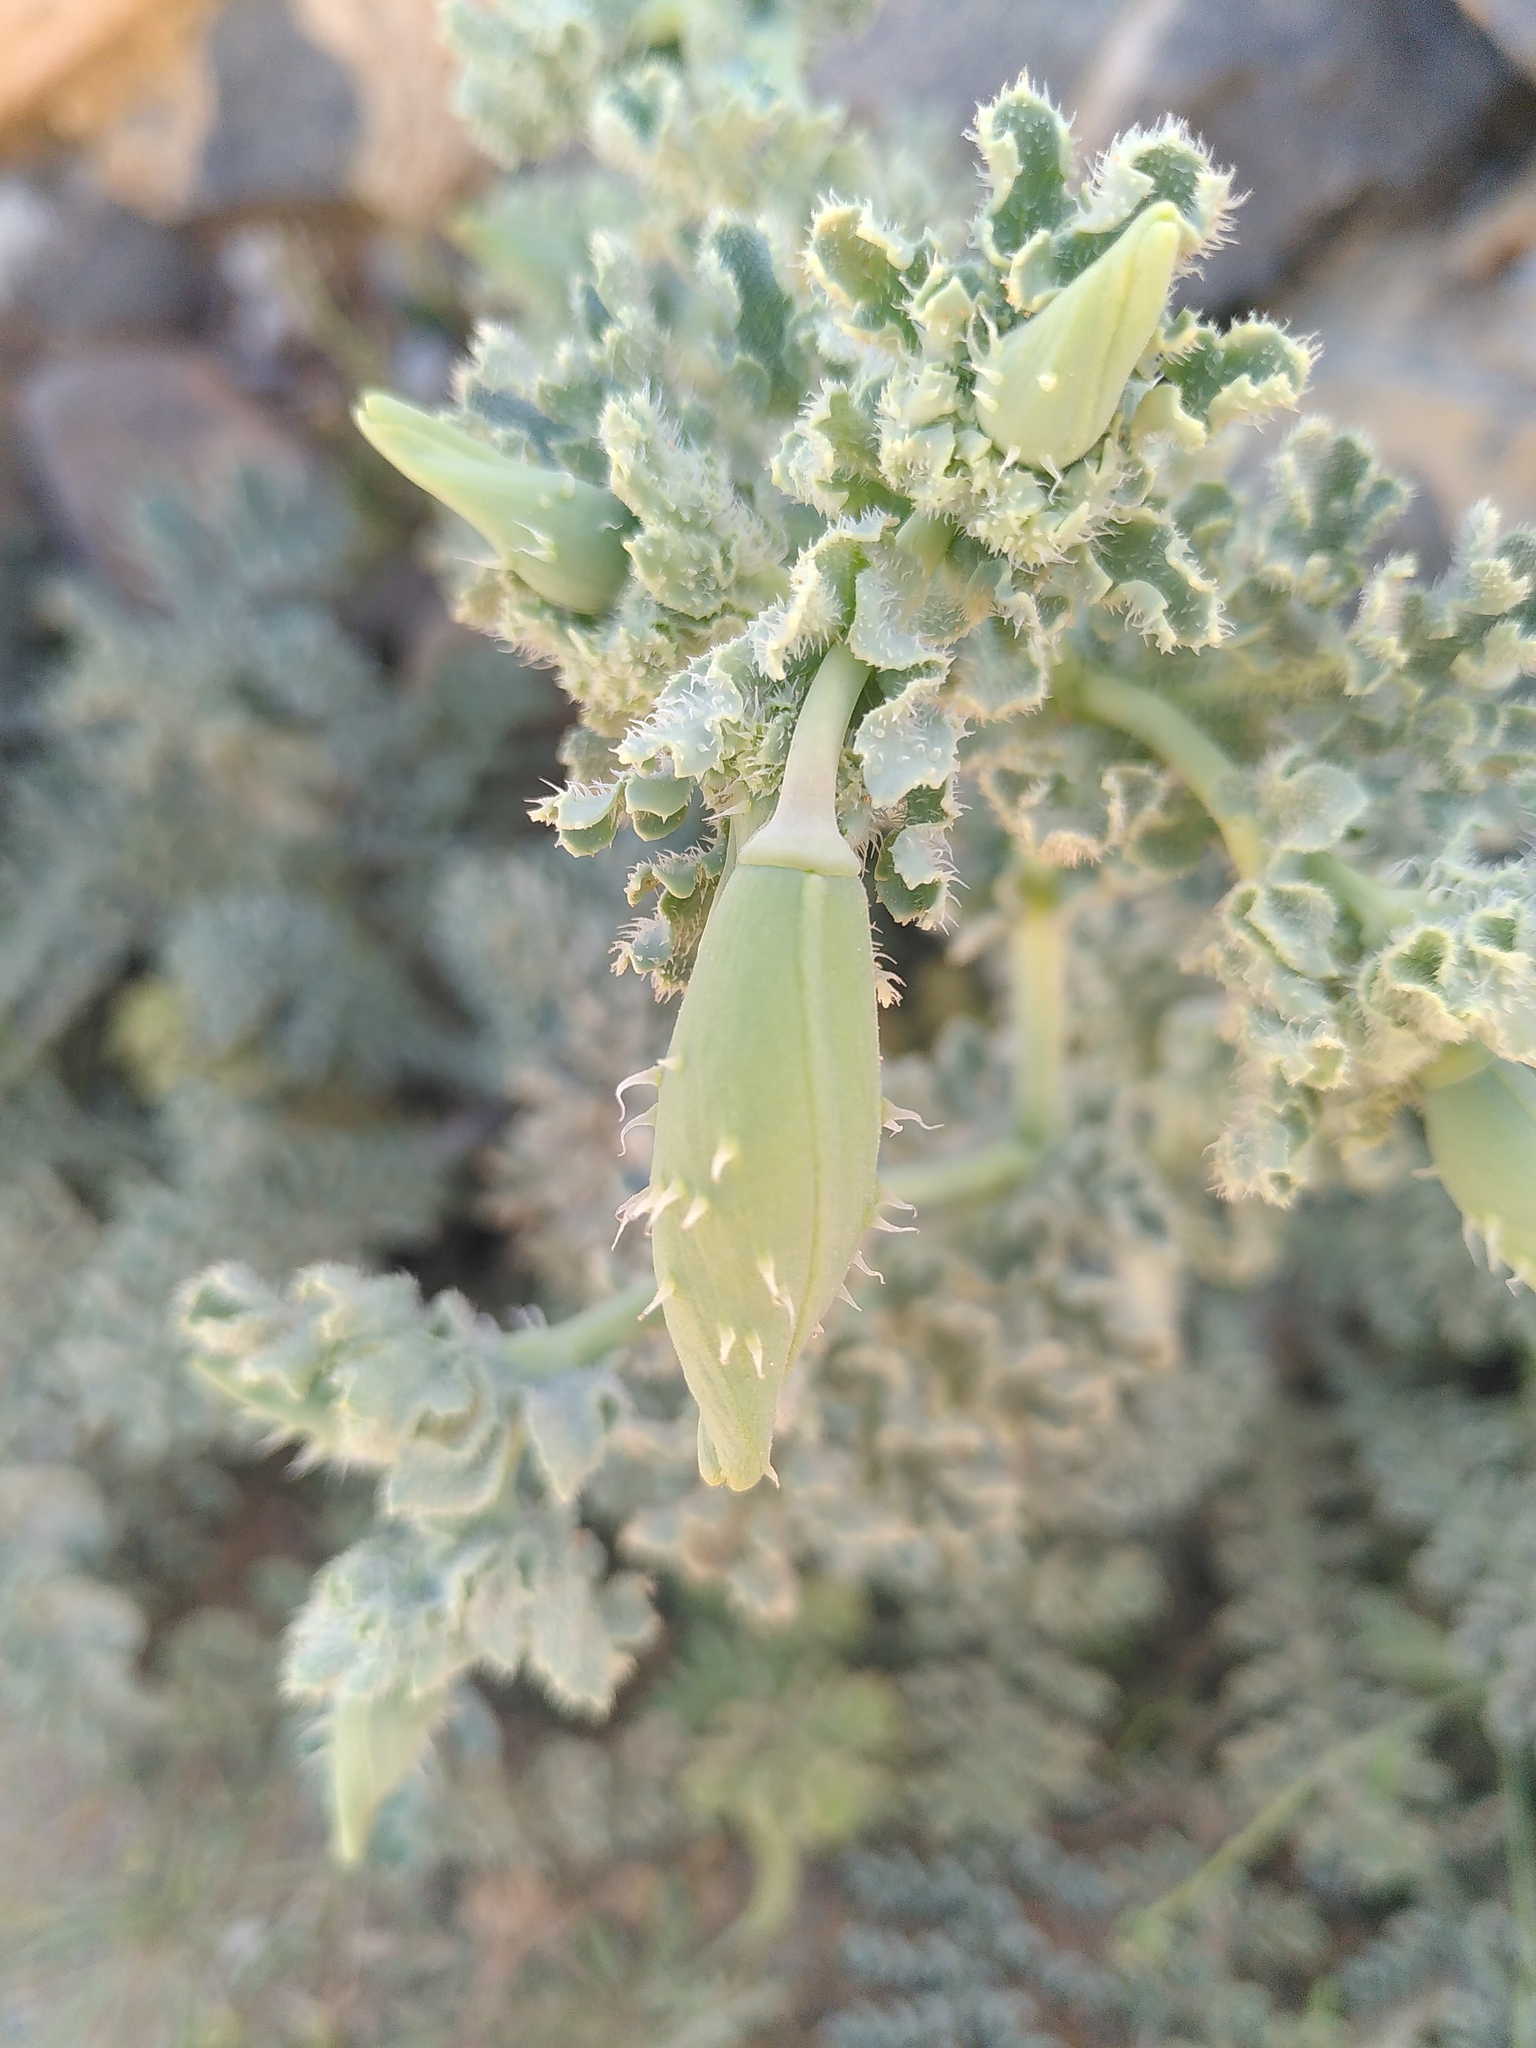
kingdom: Plantae
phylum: Tracheophyta
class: Magnoliopsida
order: Ranunculales
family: Papaveraceae
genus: Glaucium
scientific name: Glaucium flavum
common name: Yellow horned-poppy
